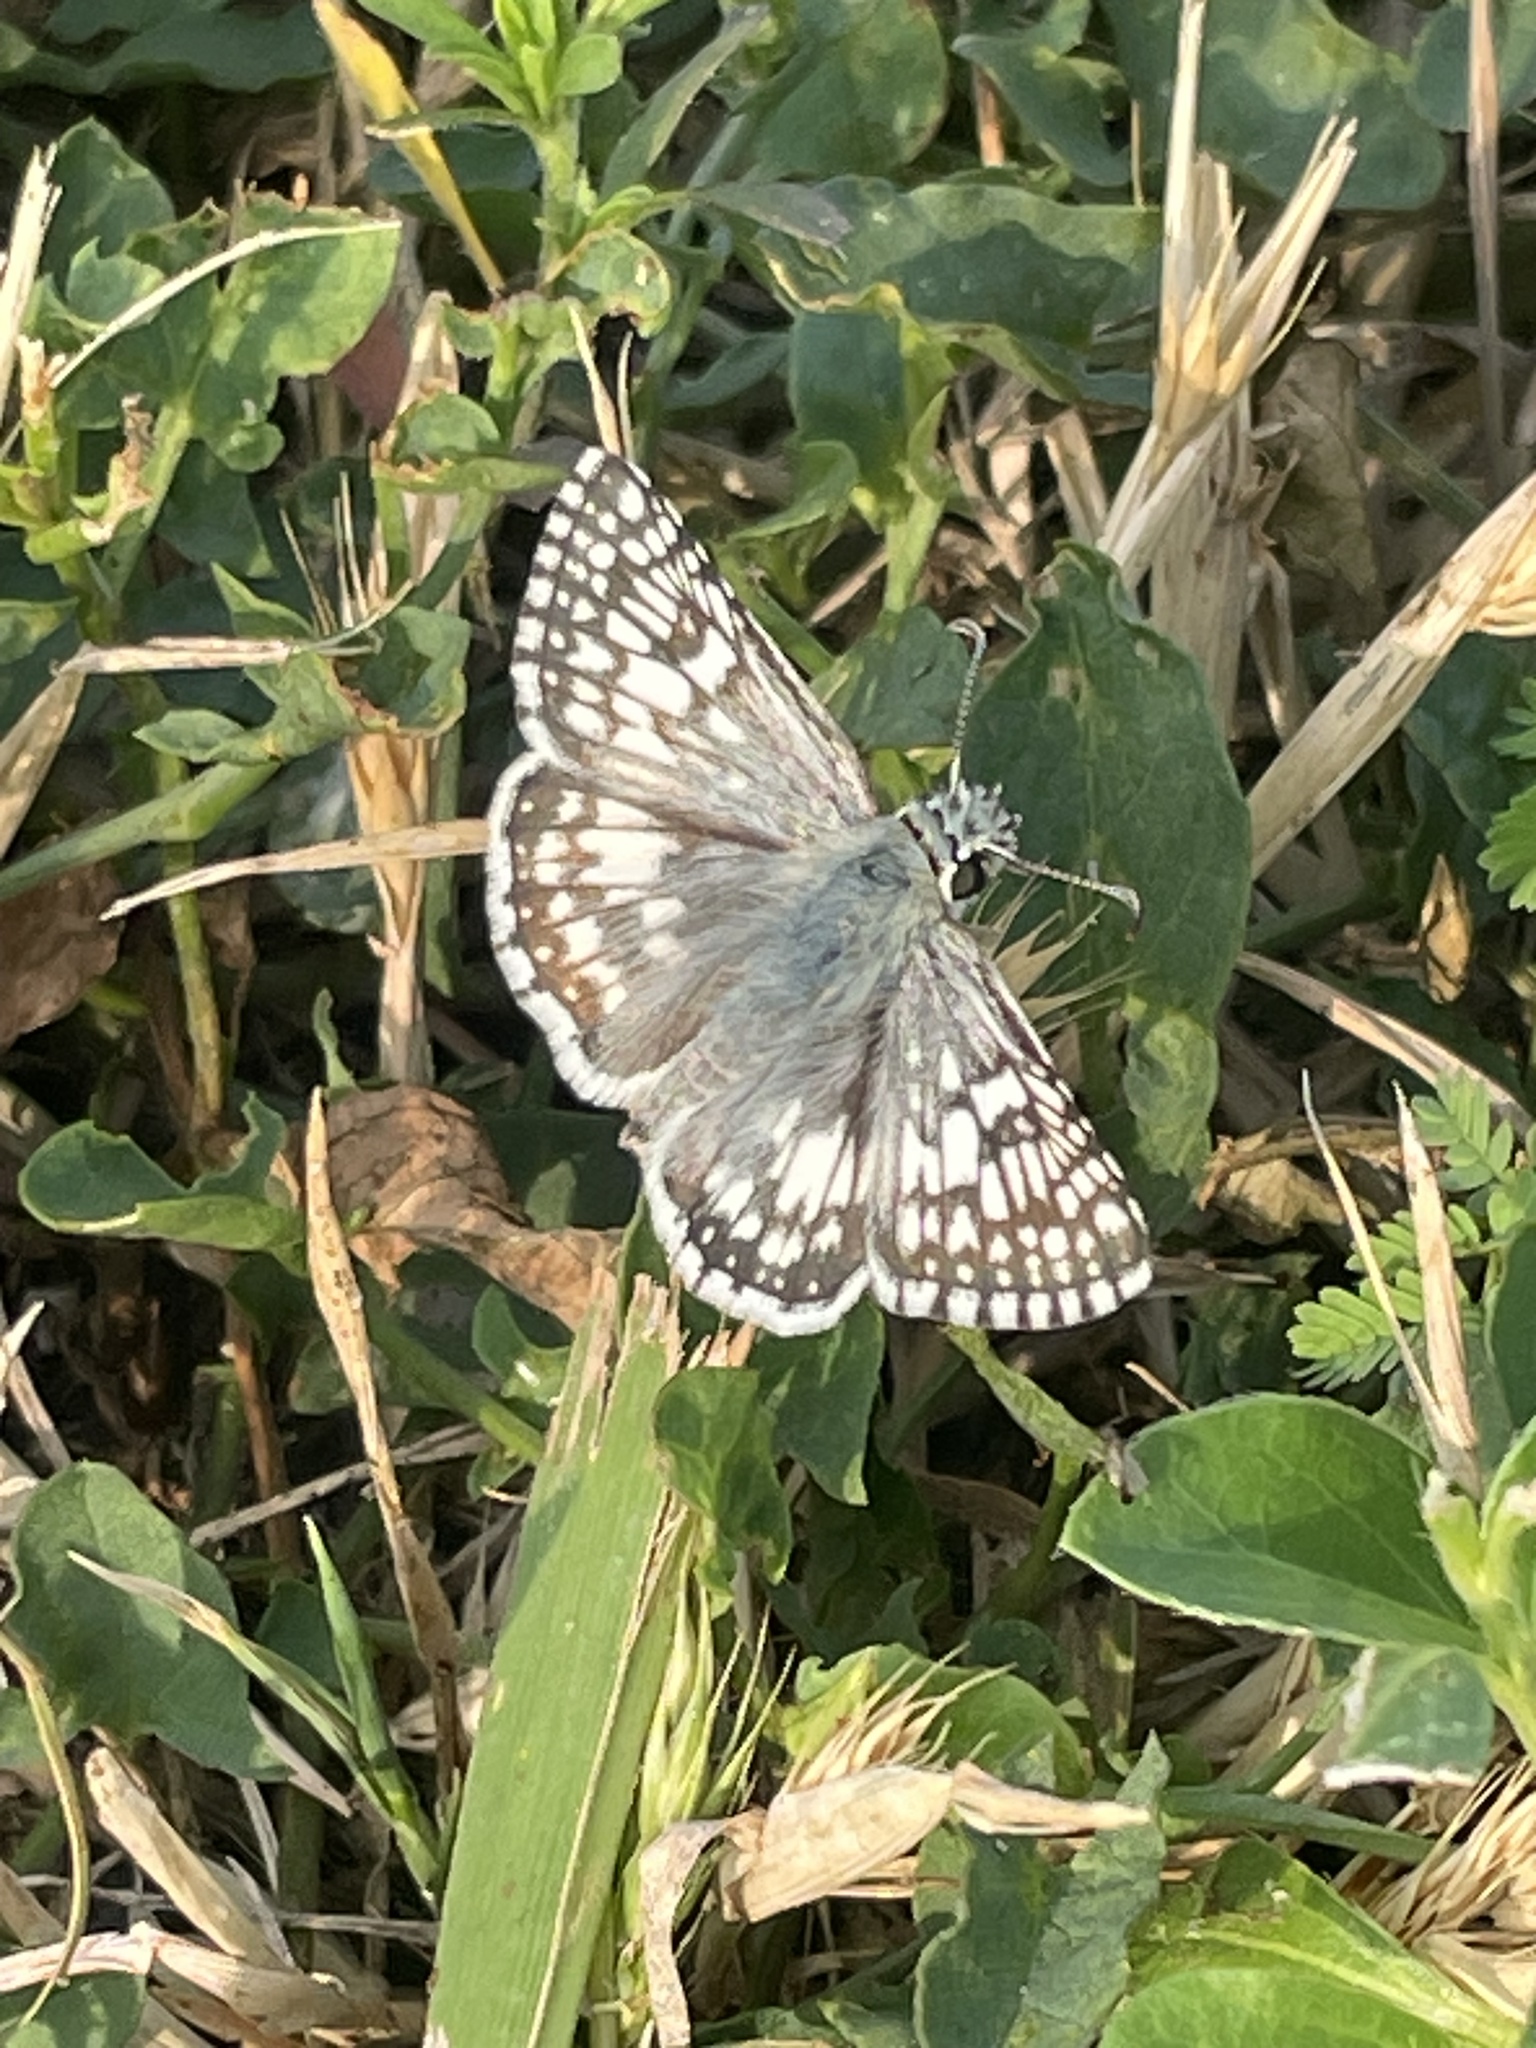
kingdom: Animalia
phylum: Arthropoda
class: Insecta
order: Lepidoptera
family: Hesperiidae
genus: Burnsius
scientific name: Burnsius communis
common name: Common checkered-skipper
